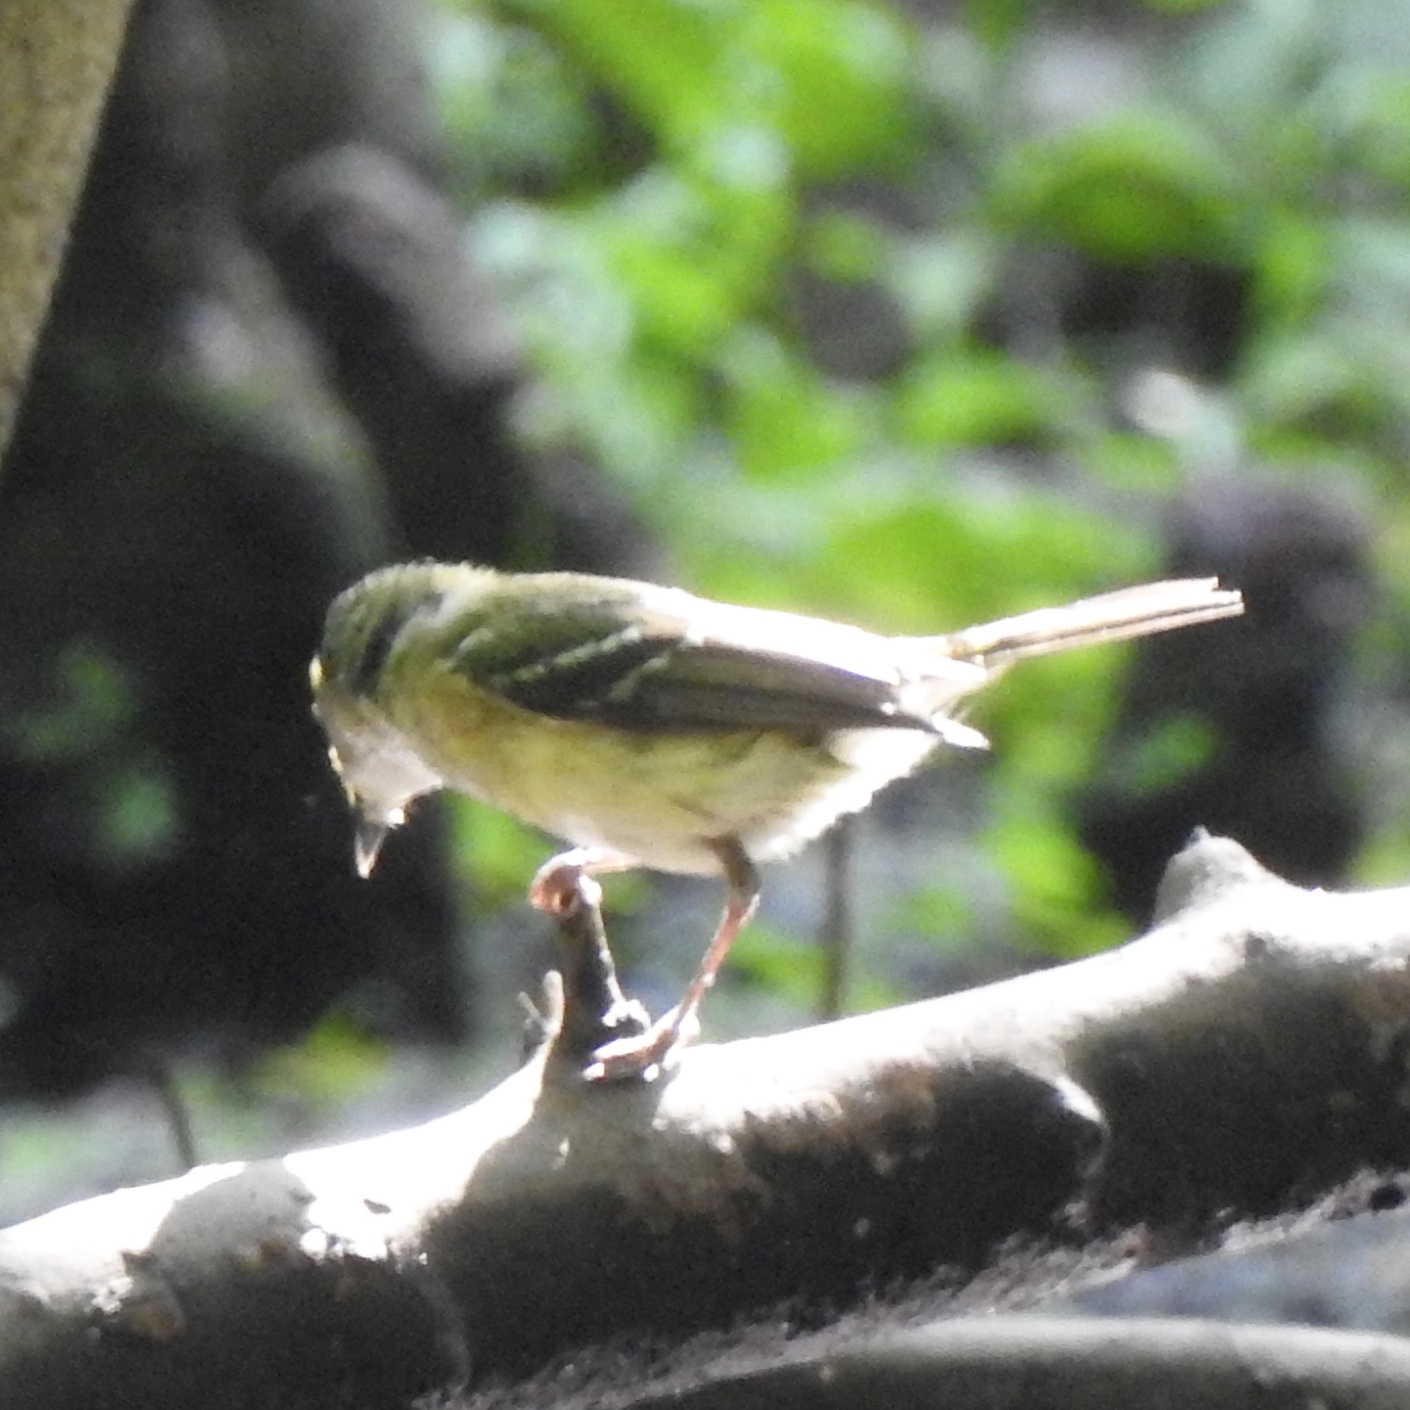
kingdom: Animalia
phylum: Chordata
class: Aves
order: Passeriformes
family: Vireonidae
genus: Vireo
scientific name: Vireo griseus
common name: White-eyed vireo
